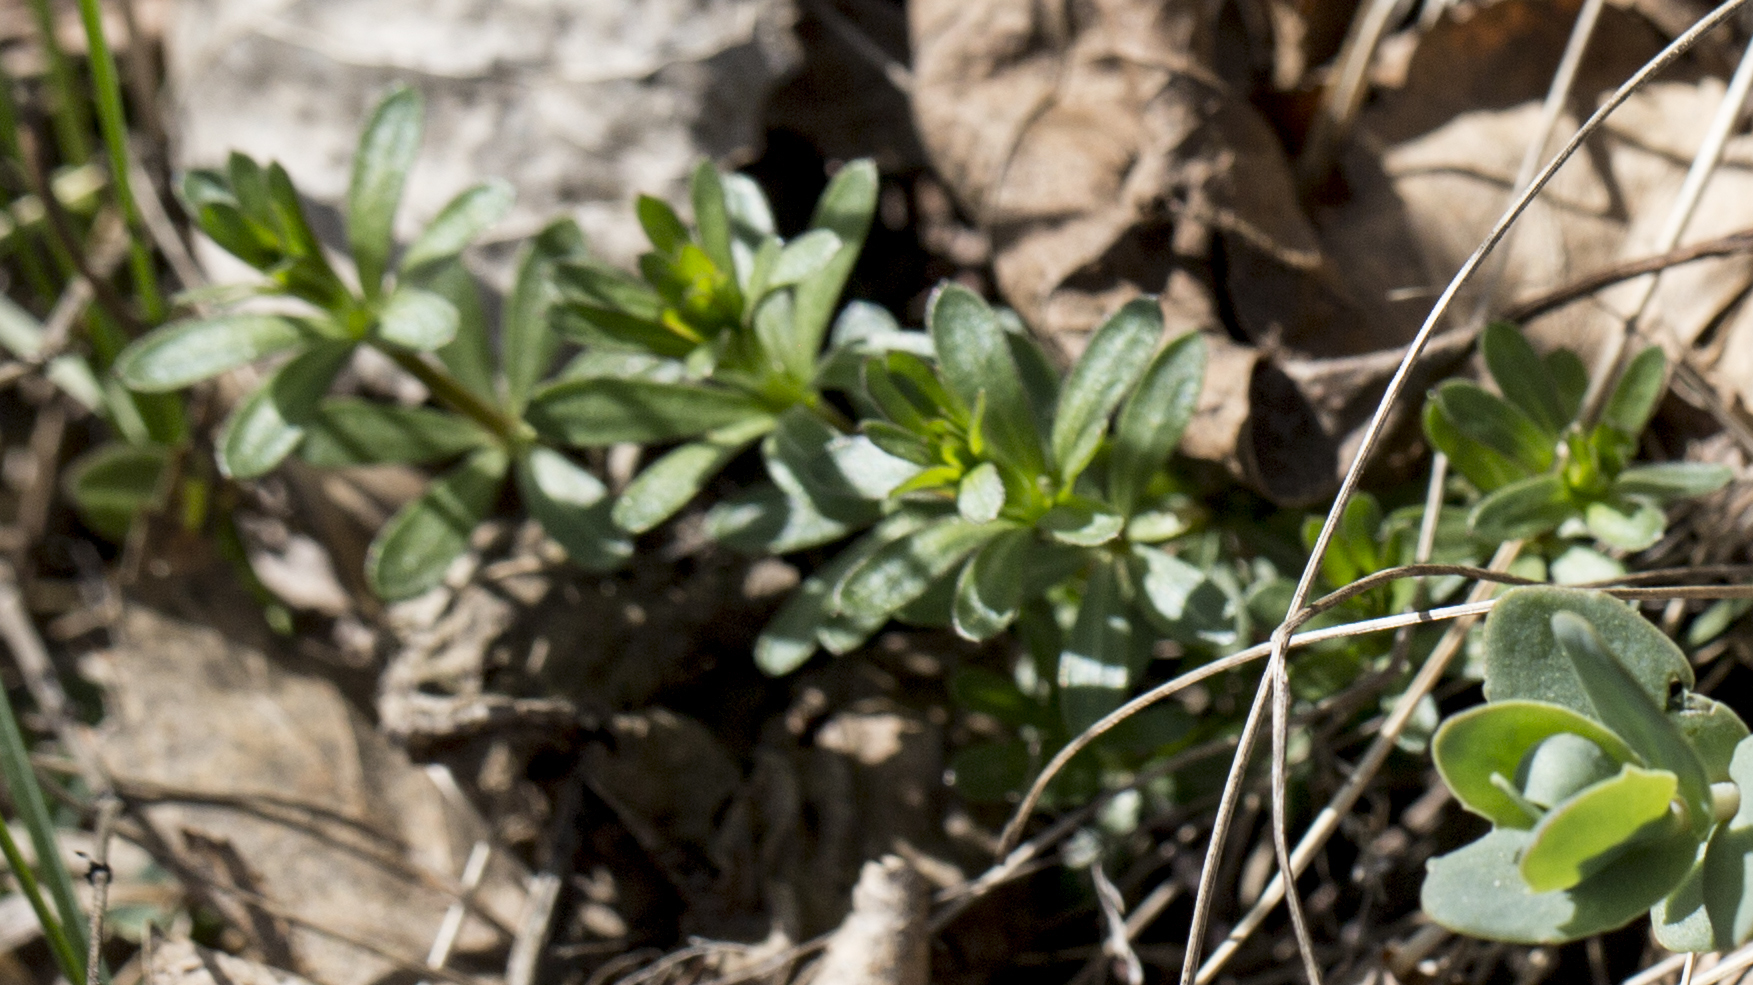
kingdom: Plantae
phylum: Tracheophyta
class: Magnoliopsida
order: Gentianales
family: Rubiaceae
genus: Galium
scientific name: Galium mollugo
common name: Hedge bedstraw
